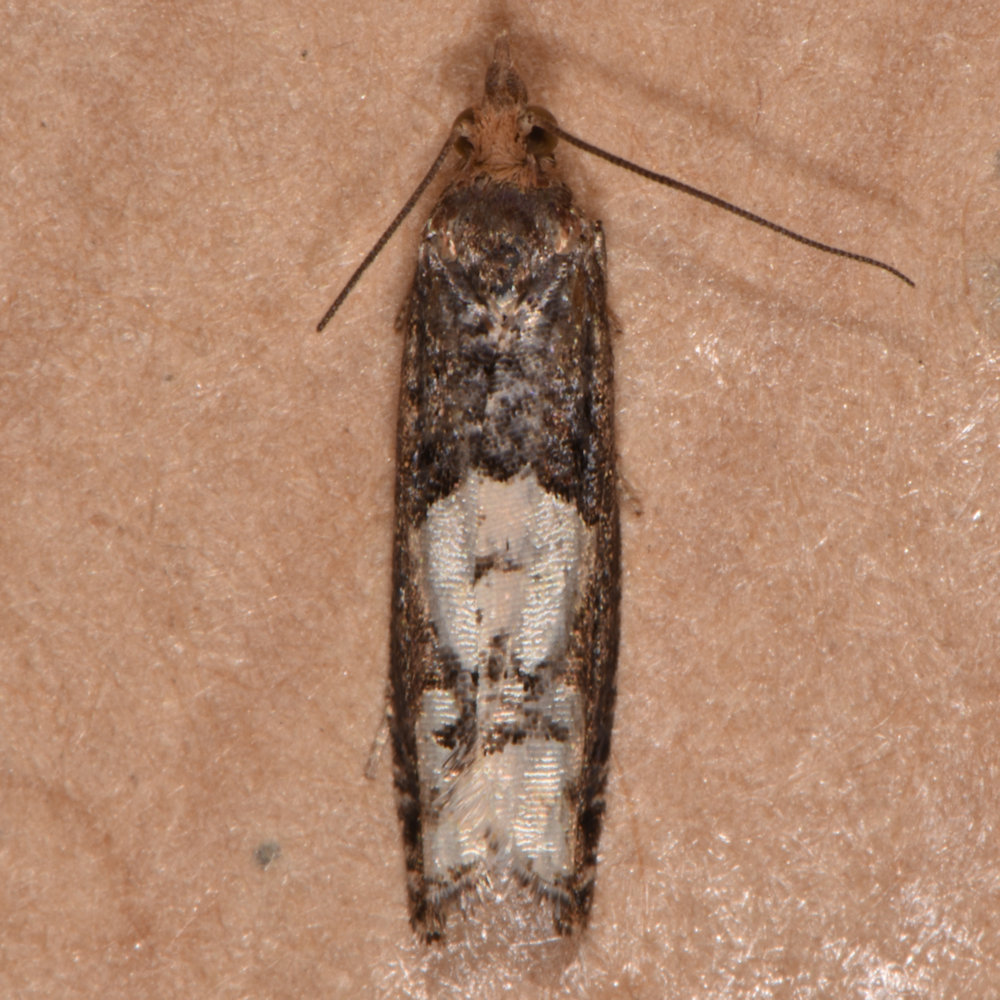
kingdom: Animalia
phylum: Arthropoda
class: Insecta
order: Lepidoptera
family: Tortricidae
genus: Epinotia
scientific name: Epinotia trigonella
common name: White-blotch bell
